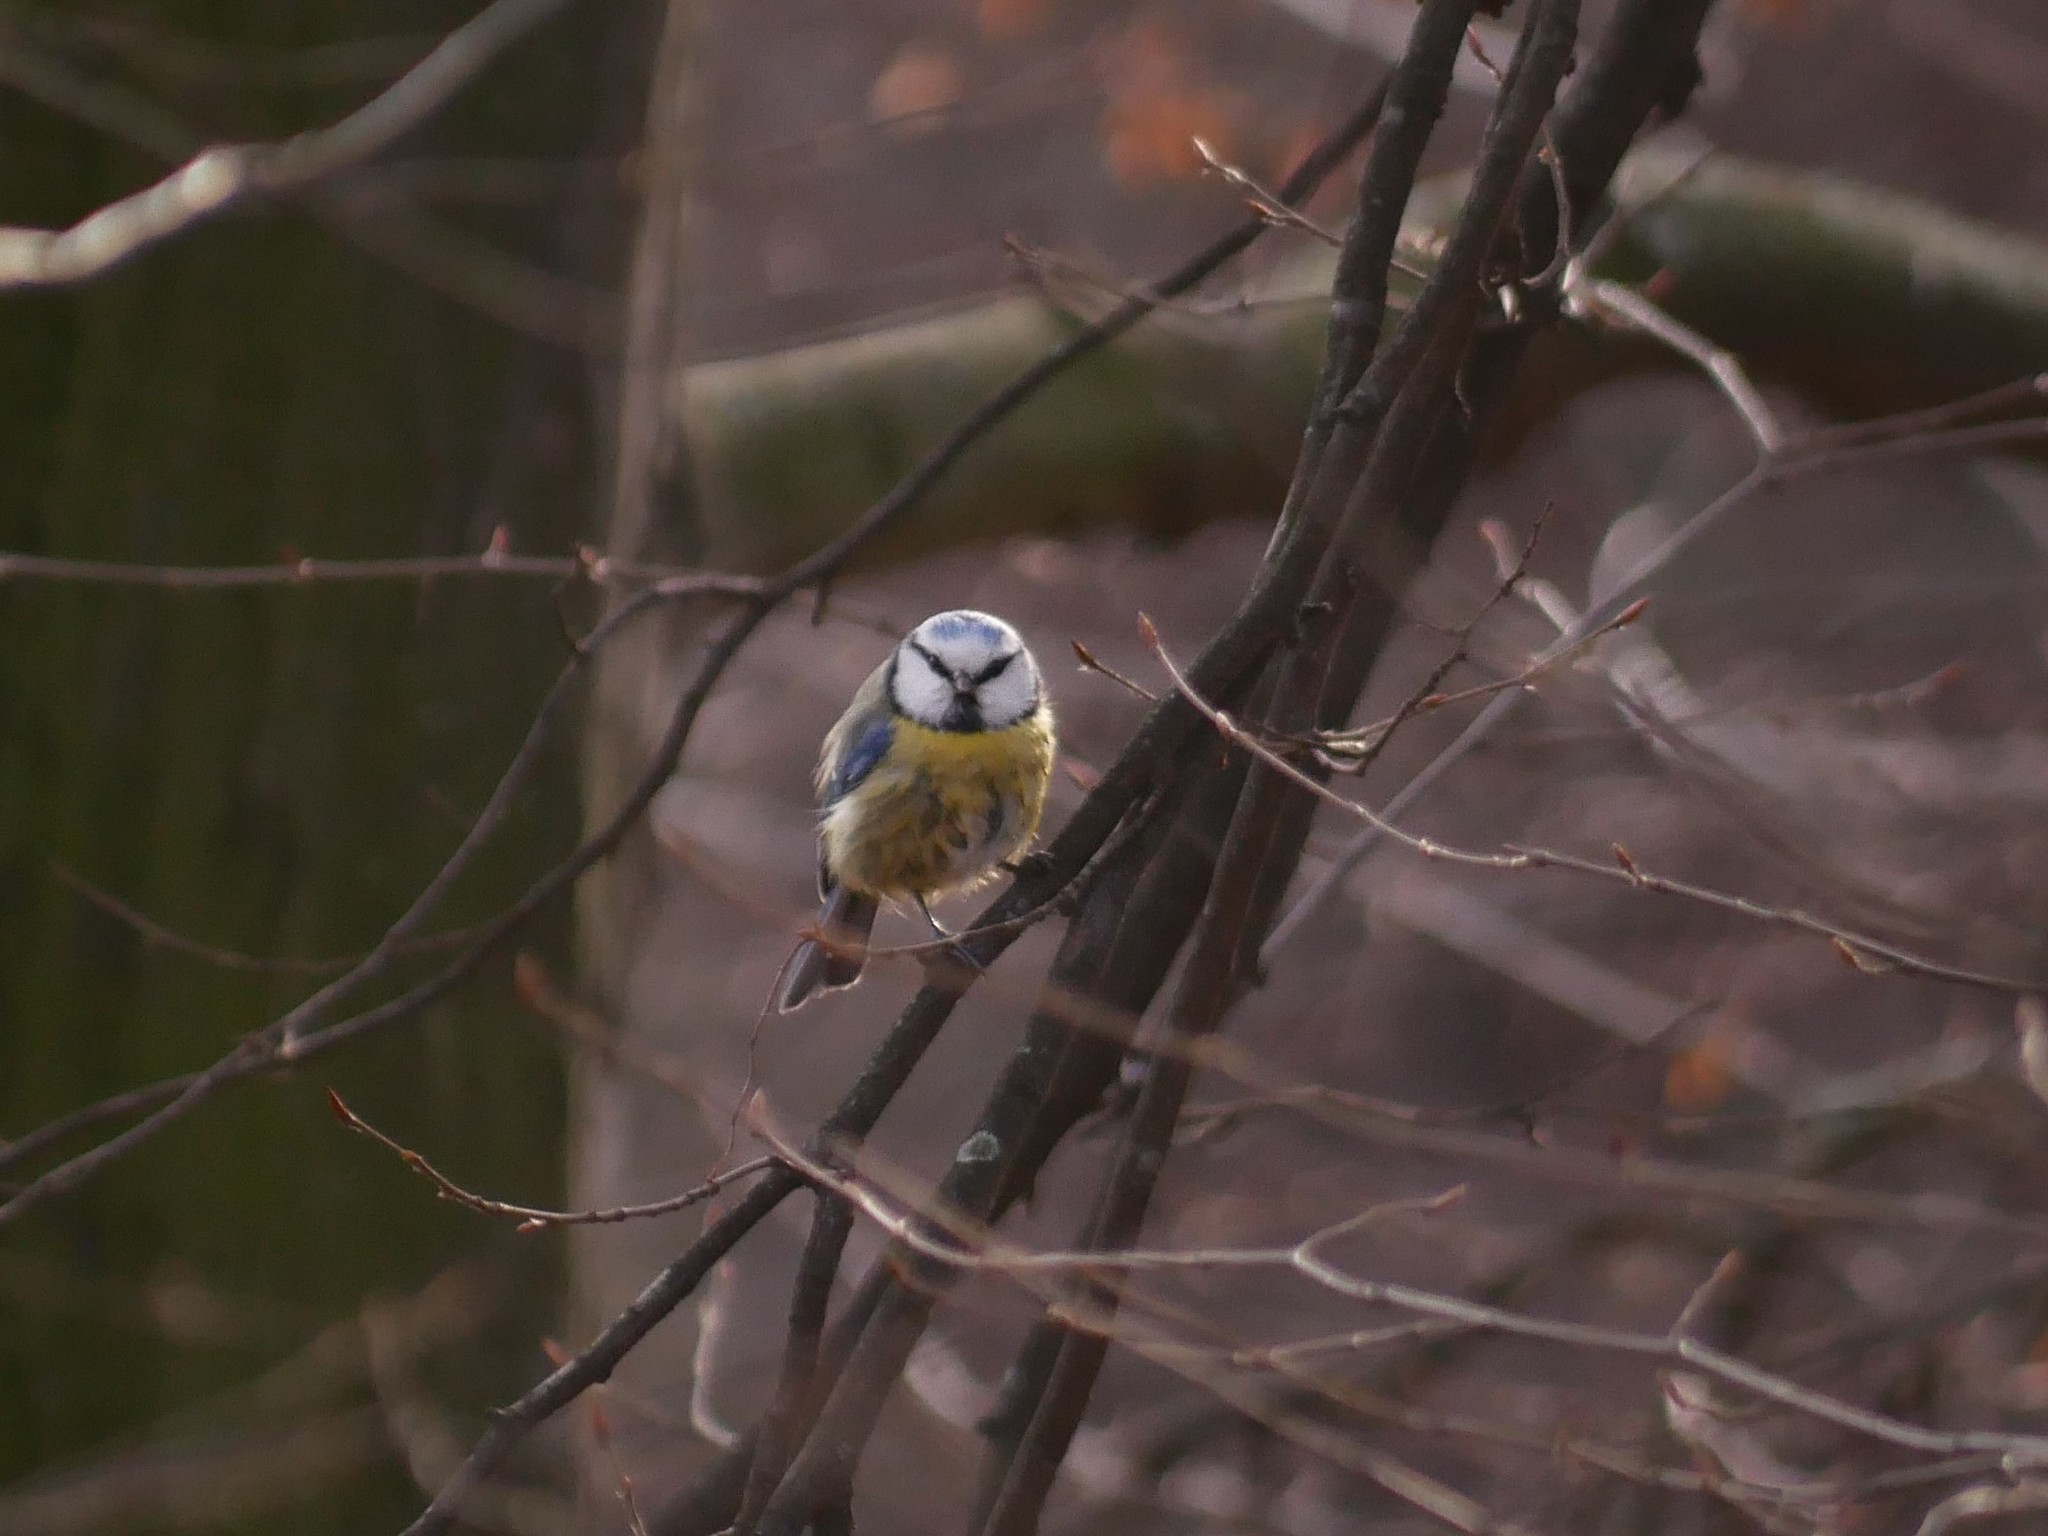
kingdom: Animalia
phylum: Chordata
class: Aves
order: Passeriformes
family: Paridae
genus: Cyanistes
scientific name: Cyanistes caeruleus
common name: Eurasian blue tit
